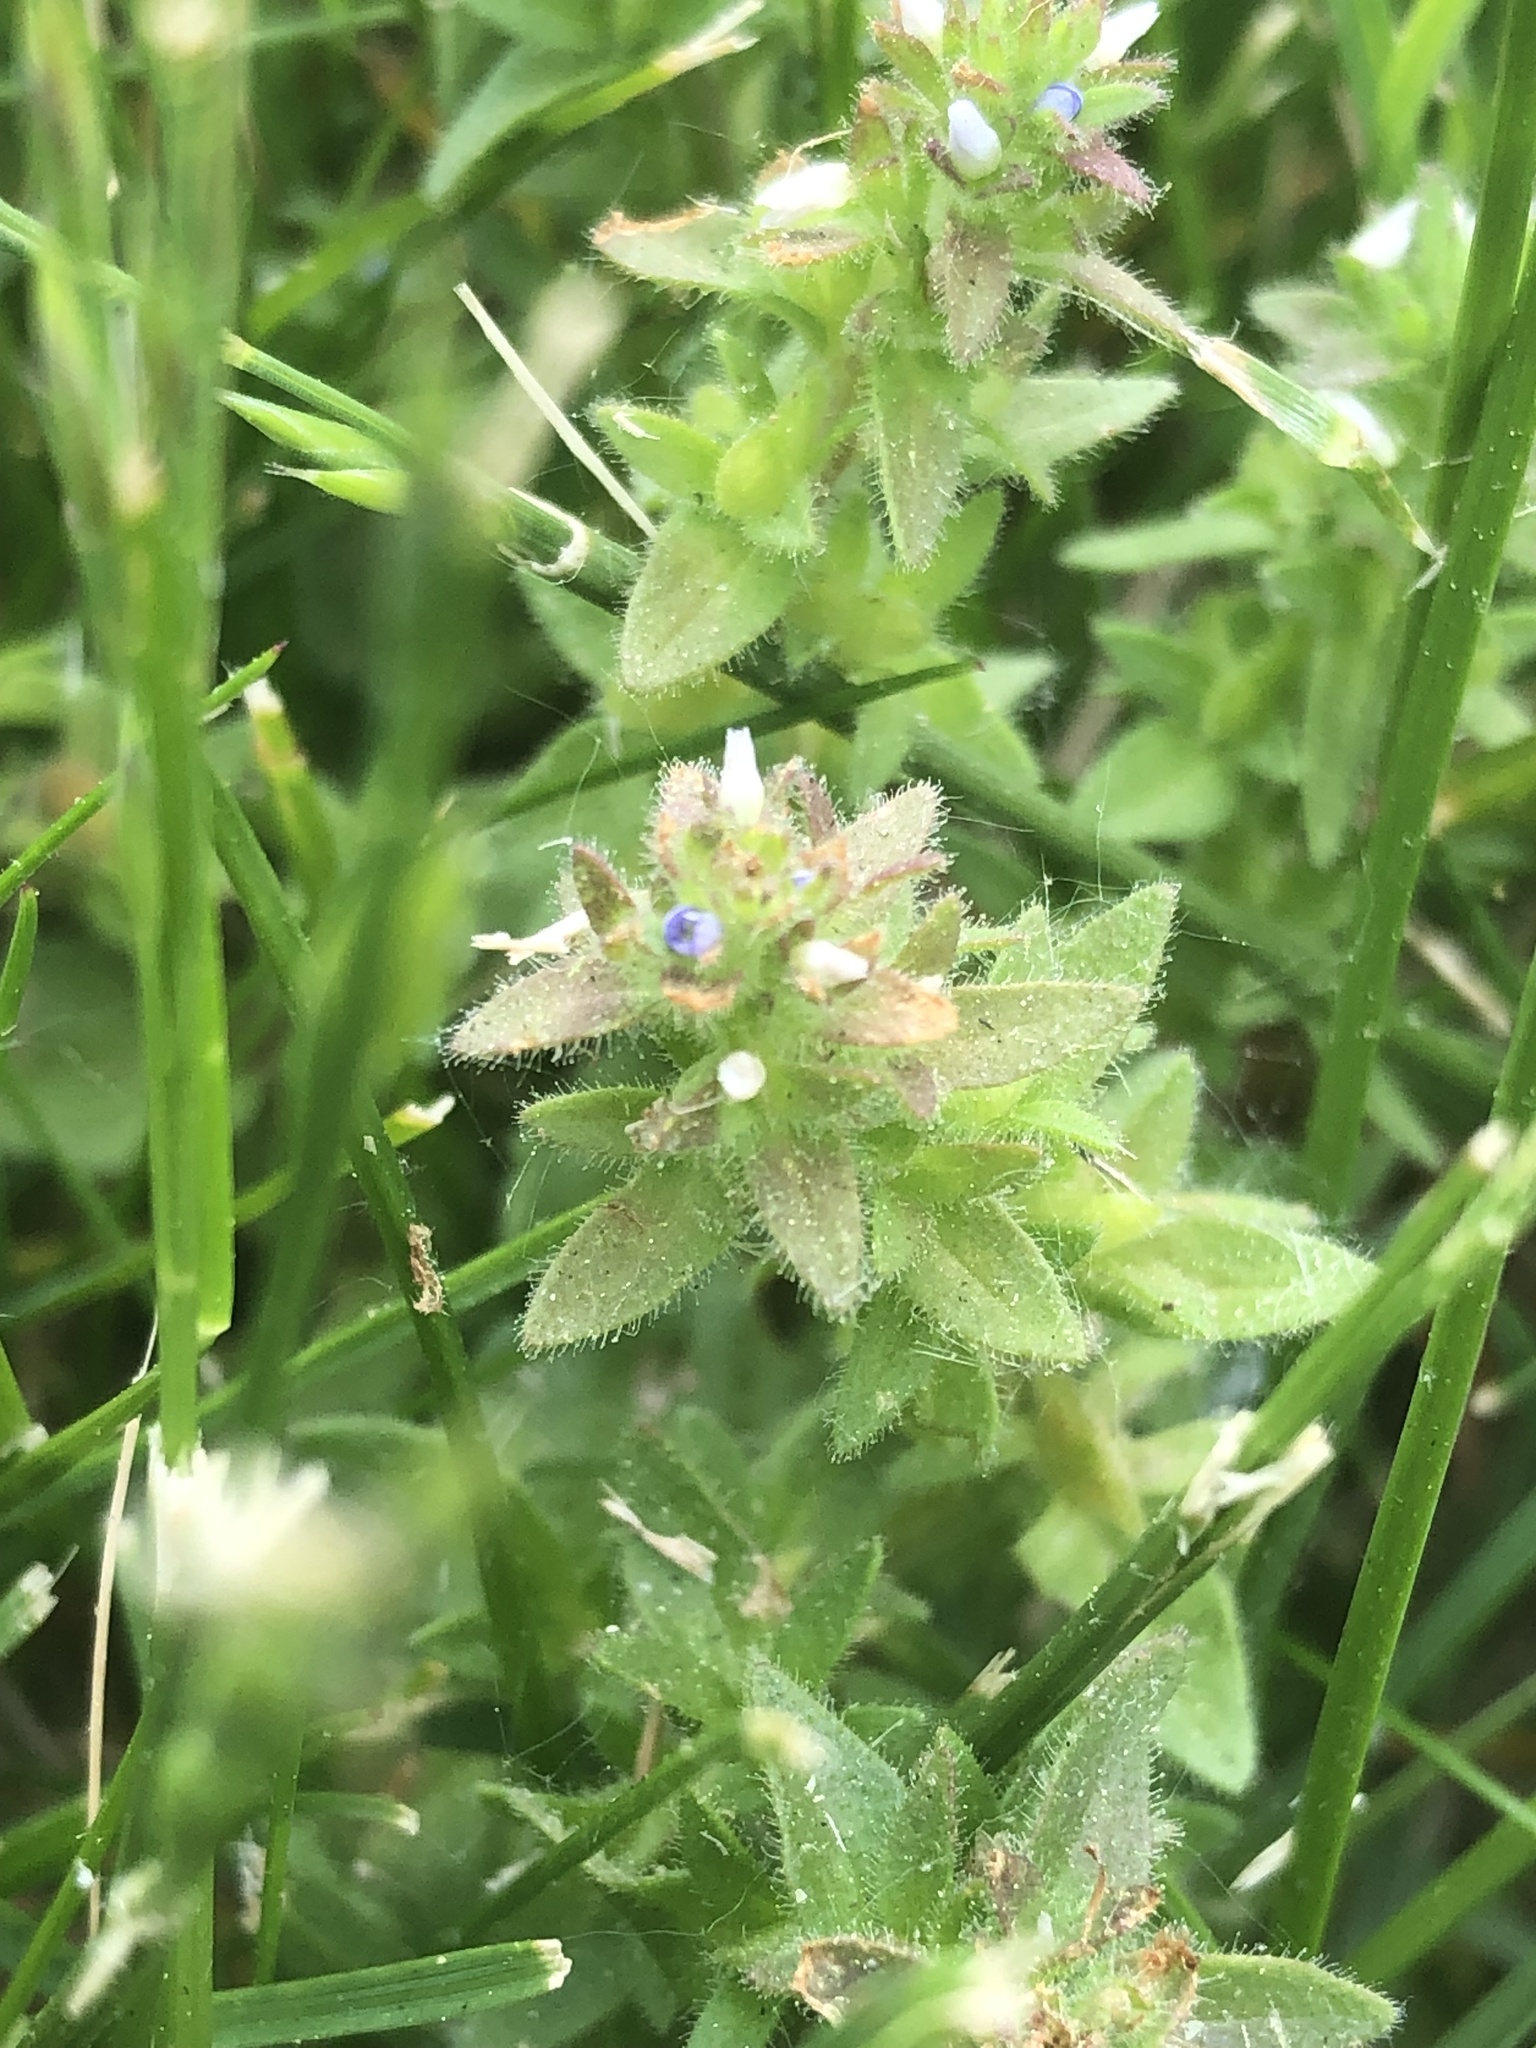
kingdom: Plantae
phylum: Tracheophyta
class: Magnoliopsida
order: Lamiales
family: Plantaginaceae
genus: Veronica
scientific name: Veronica arvensis
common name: Corn speedwell
